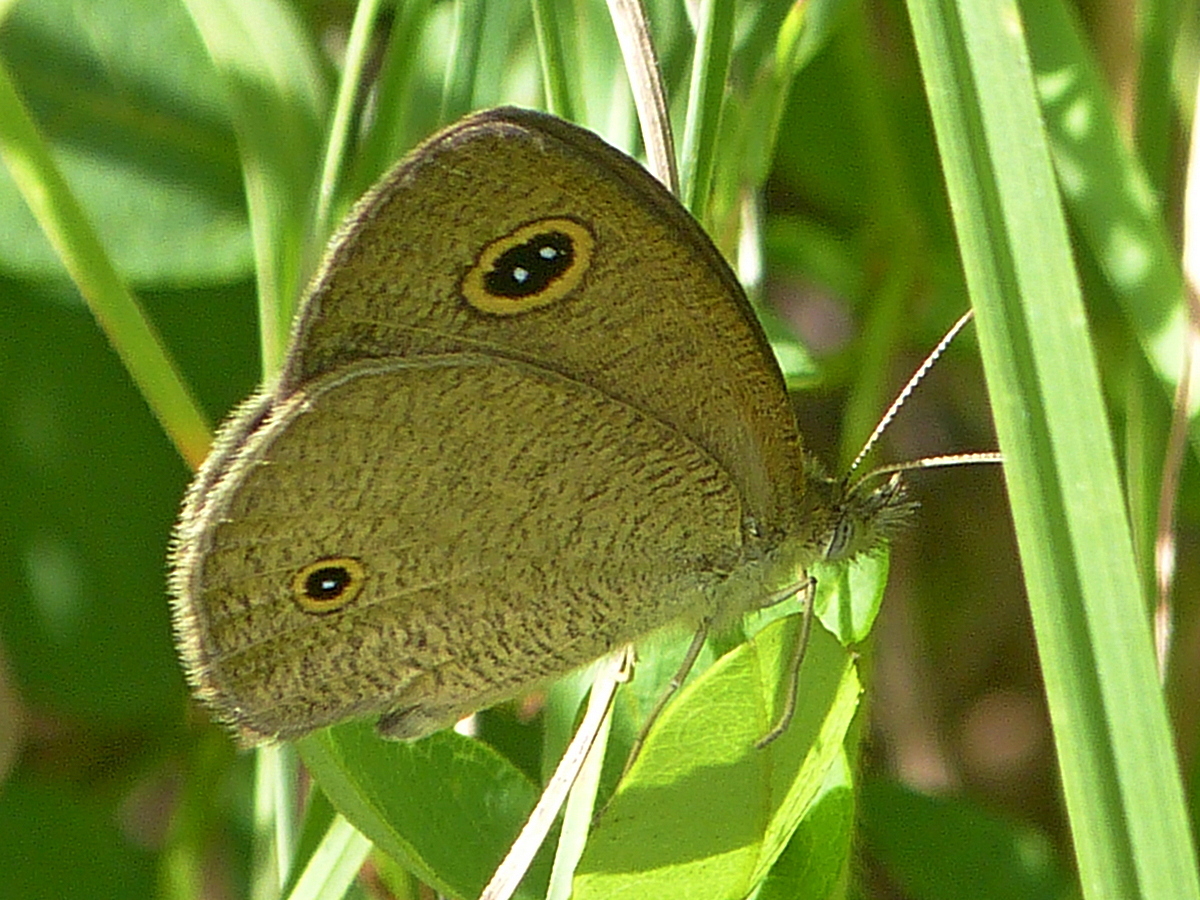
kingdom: Animalia
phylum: Arthropoda
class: Insecta
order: Lepidoptera
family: Nymphalidae
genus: Ypthima
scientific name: Ypthima arctous
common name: Dusky knight
